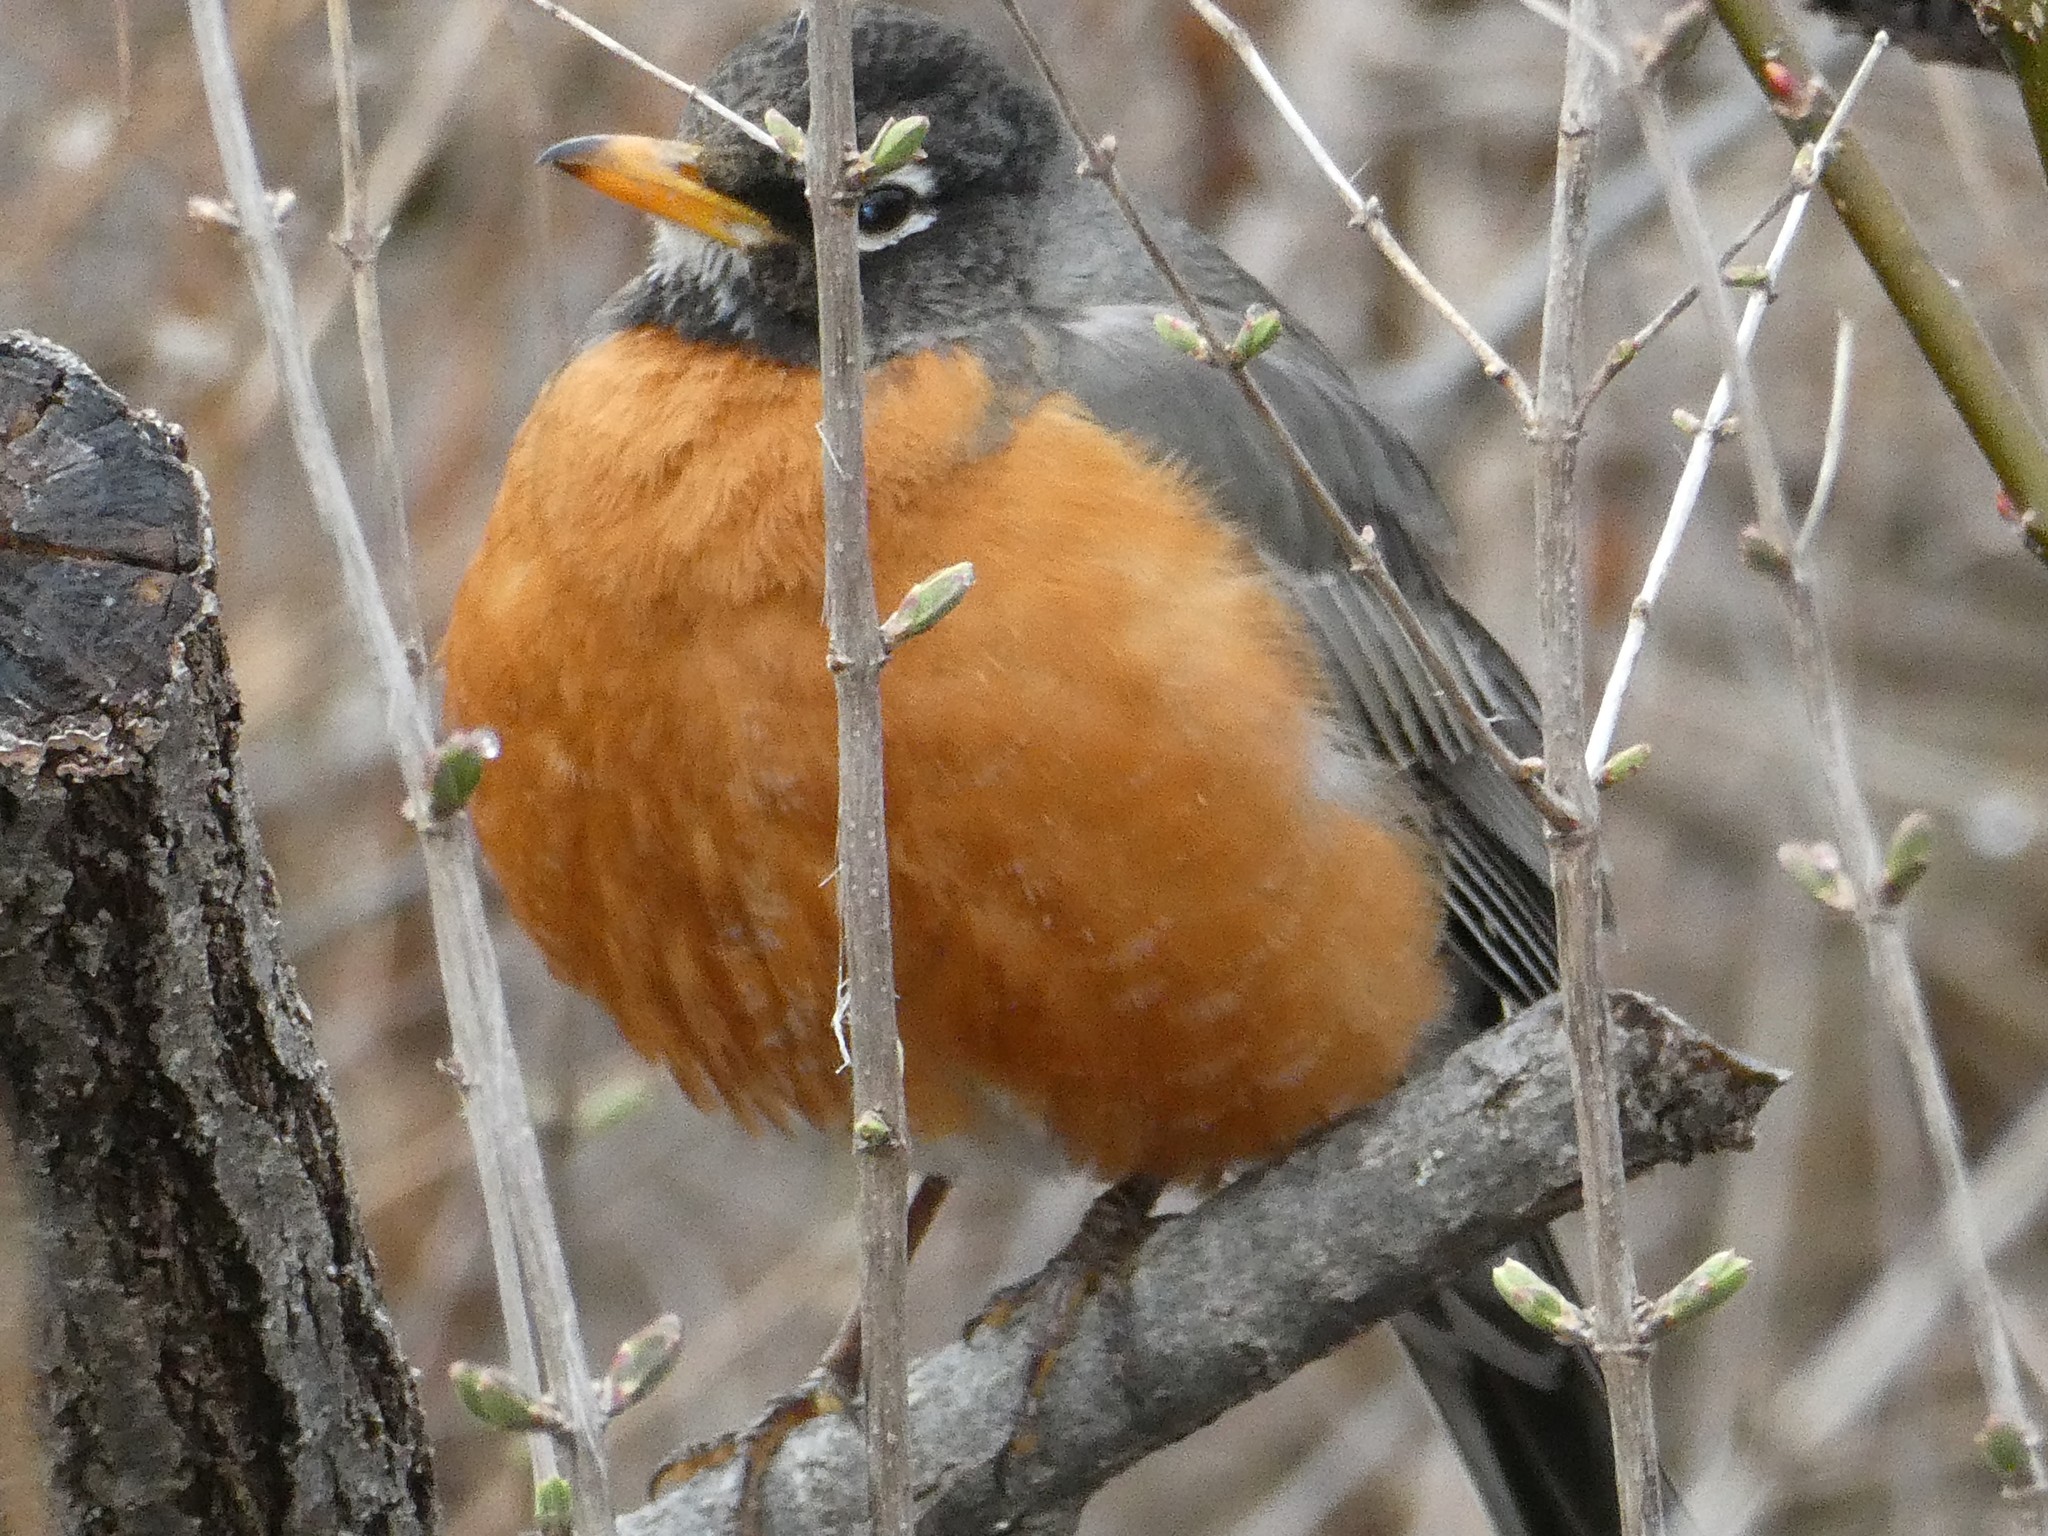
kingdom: Animalia
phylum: Chordata
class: Aves
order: Passeriformes
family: Turdidae
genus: Turdus
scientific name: Turdus migratorius
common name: American robin
